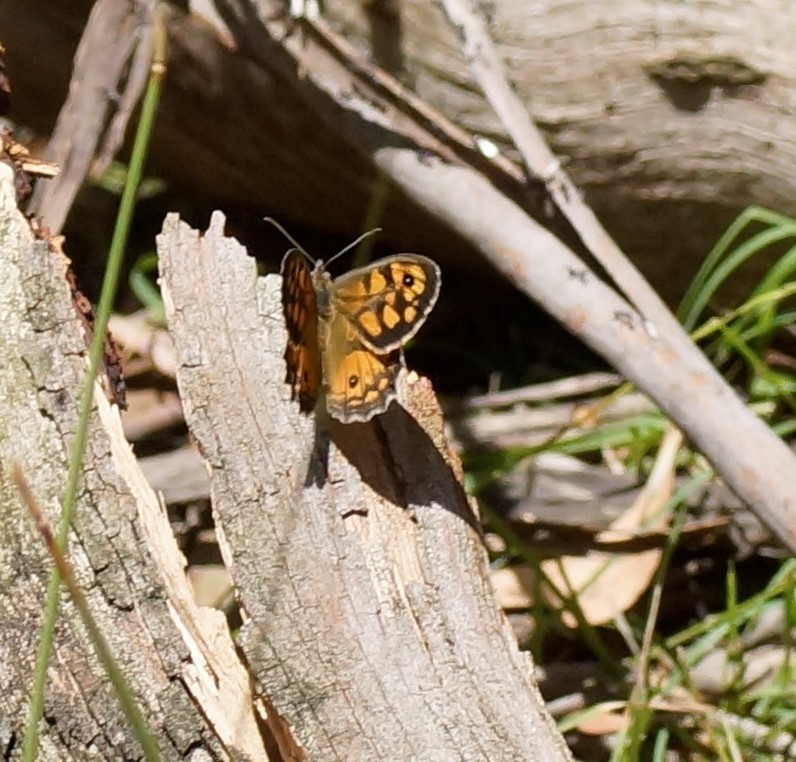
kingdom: Animalia
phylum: Arthropoda
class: Insecta
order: Lepidoptera
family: Nymphalidae
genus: Geitoneura
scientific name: Geitoneura klugii
